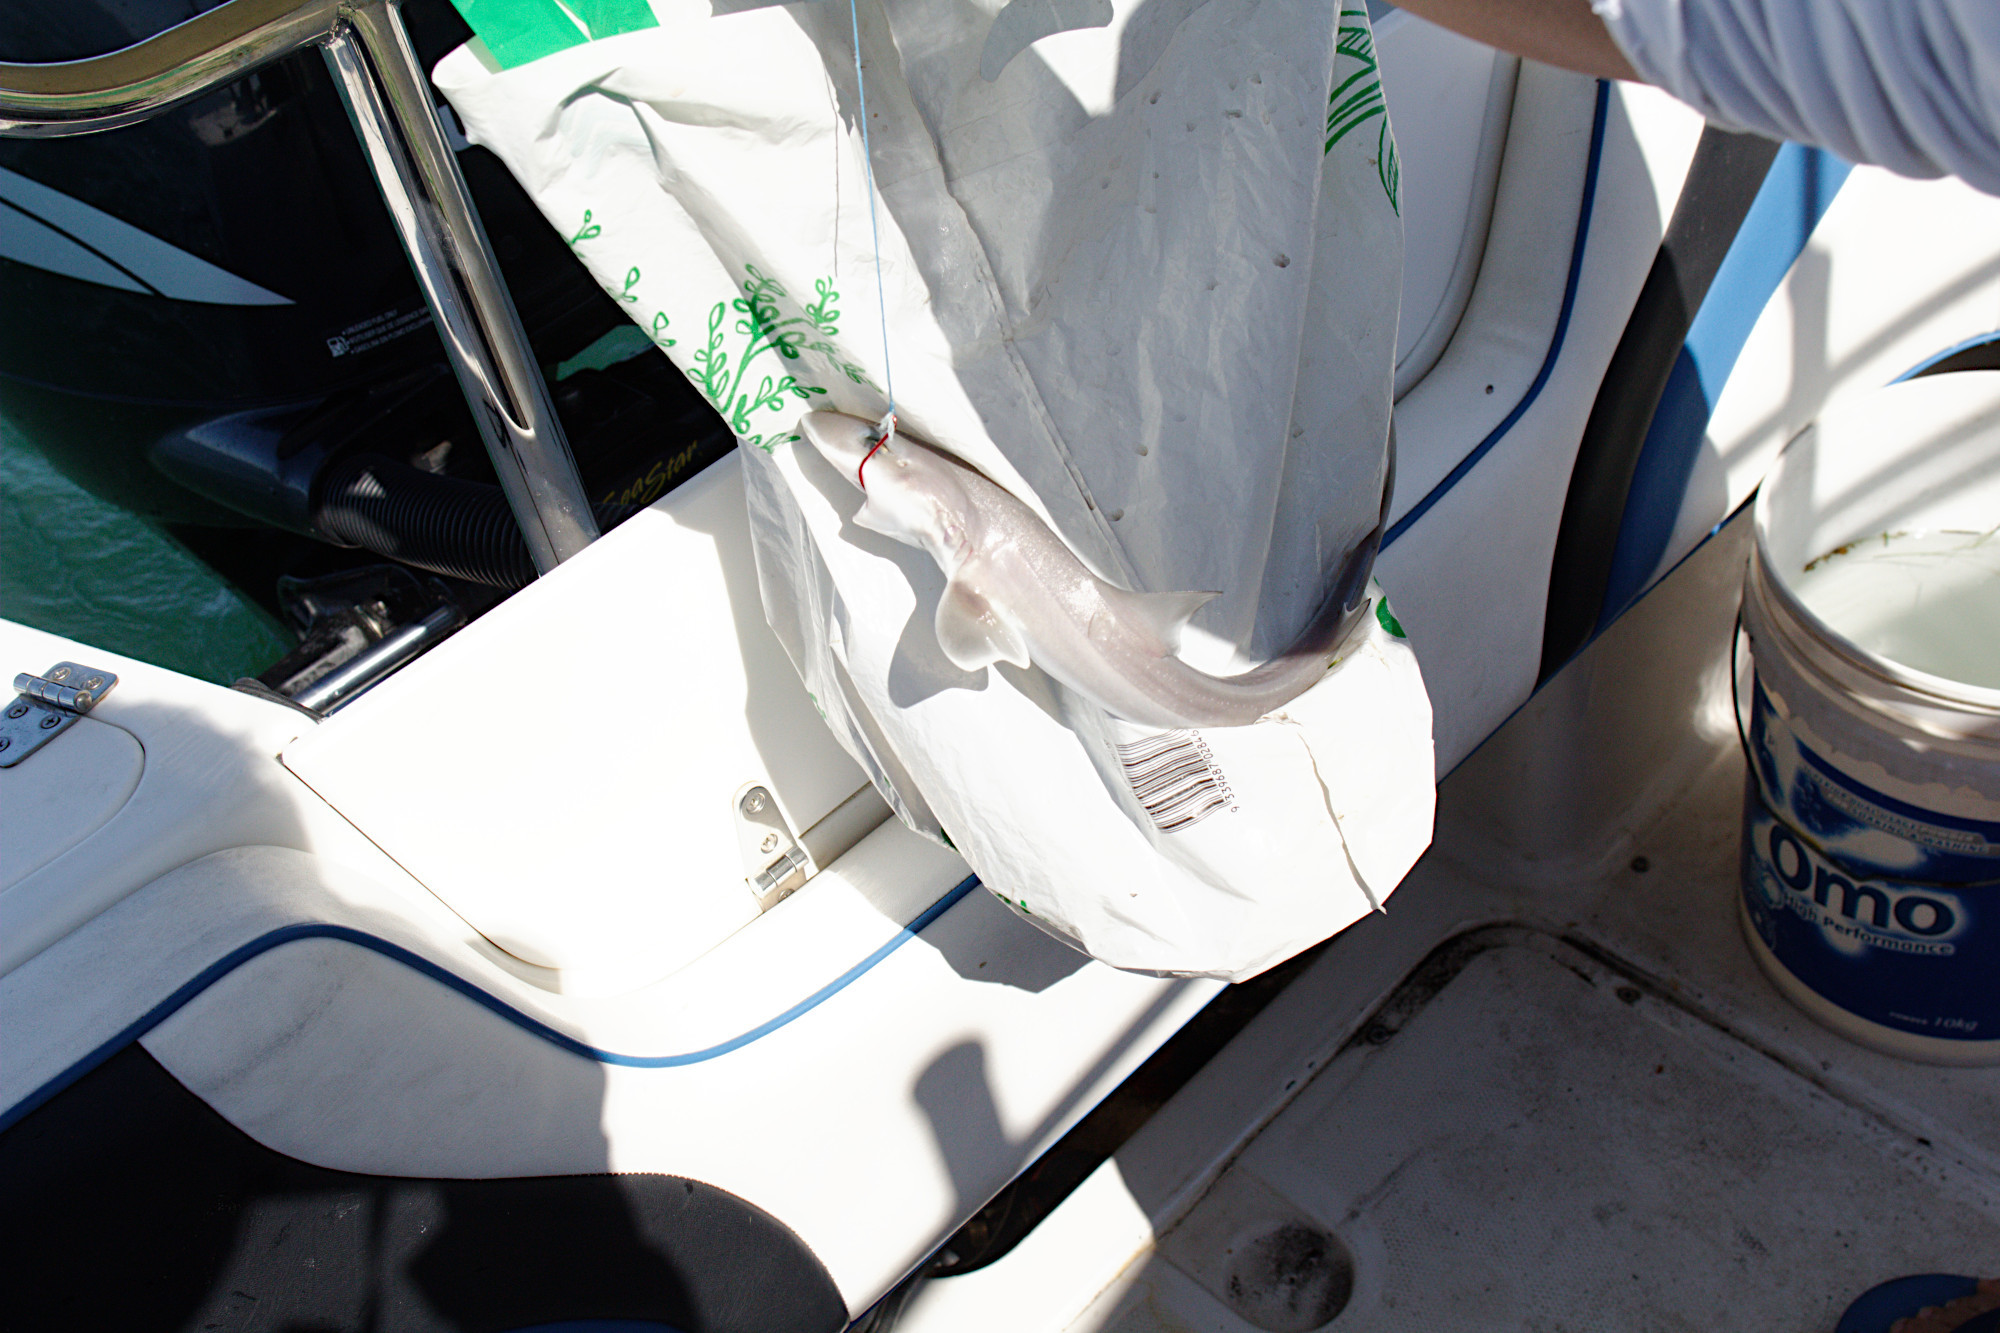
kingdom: Animalia
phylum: Chordata
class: Elasmobranchii
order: Carcharhiniformes
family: Triakidae
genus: Mustelus
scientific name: Mustelus antarcticus
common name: Gummy shark
